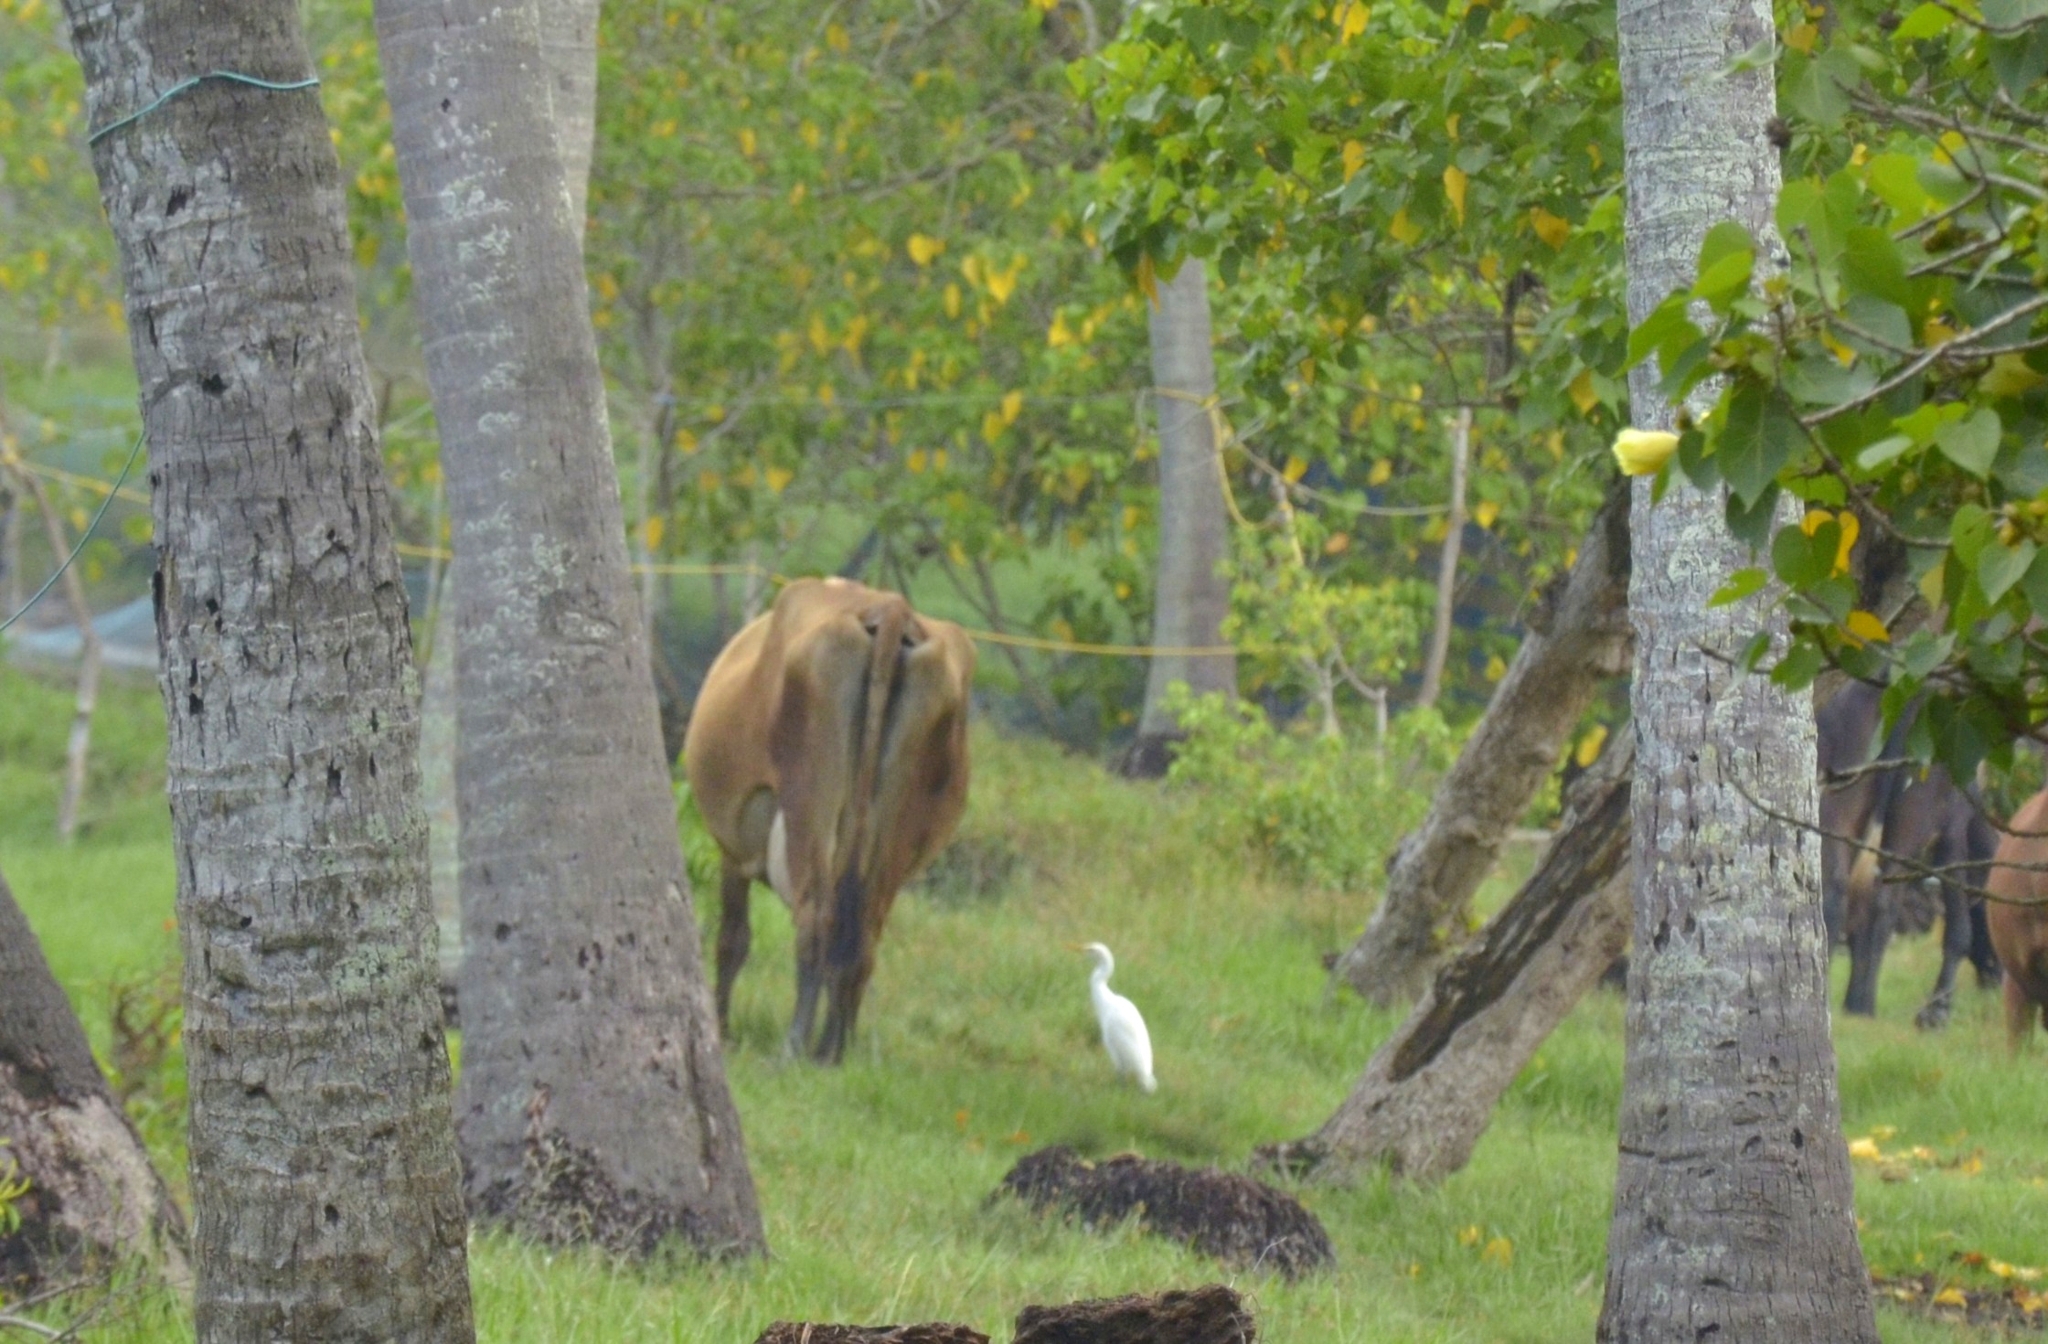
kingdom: Animalia
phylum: Chordata
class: Aves
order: Pelecaniformes
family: Ardeidae
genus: Bubulcus
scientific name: Bubulcus coromandus
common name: Eastern cattle egret
